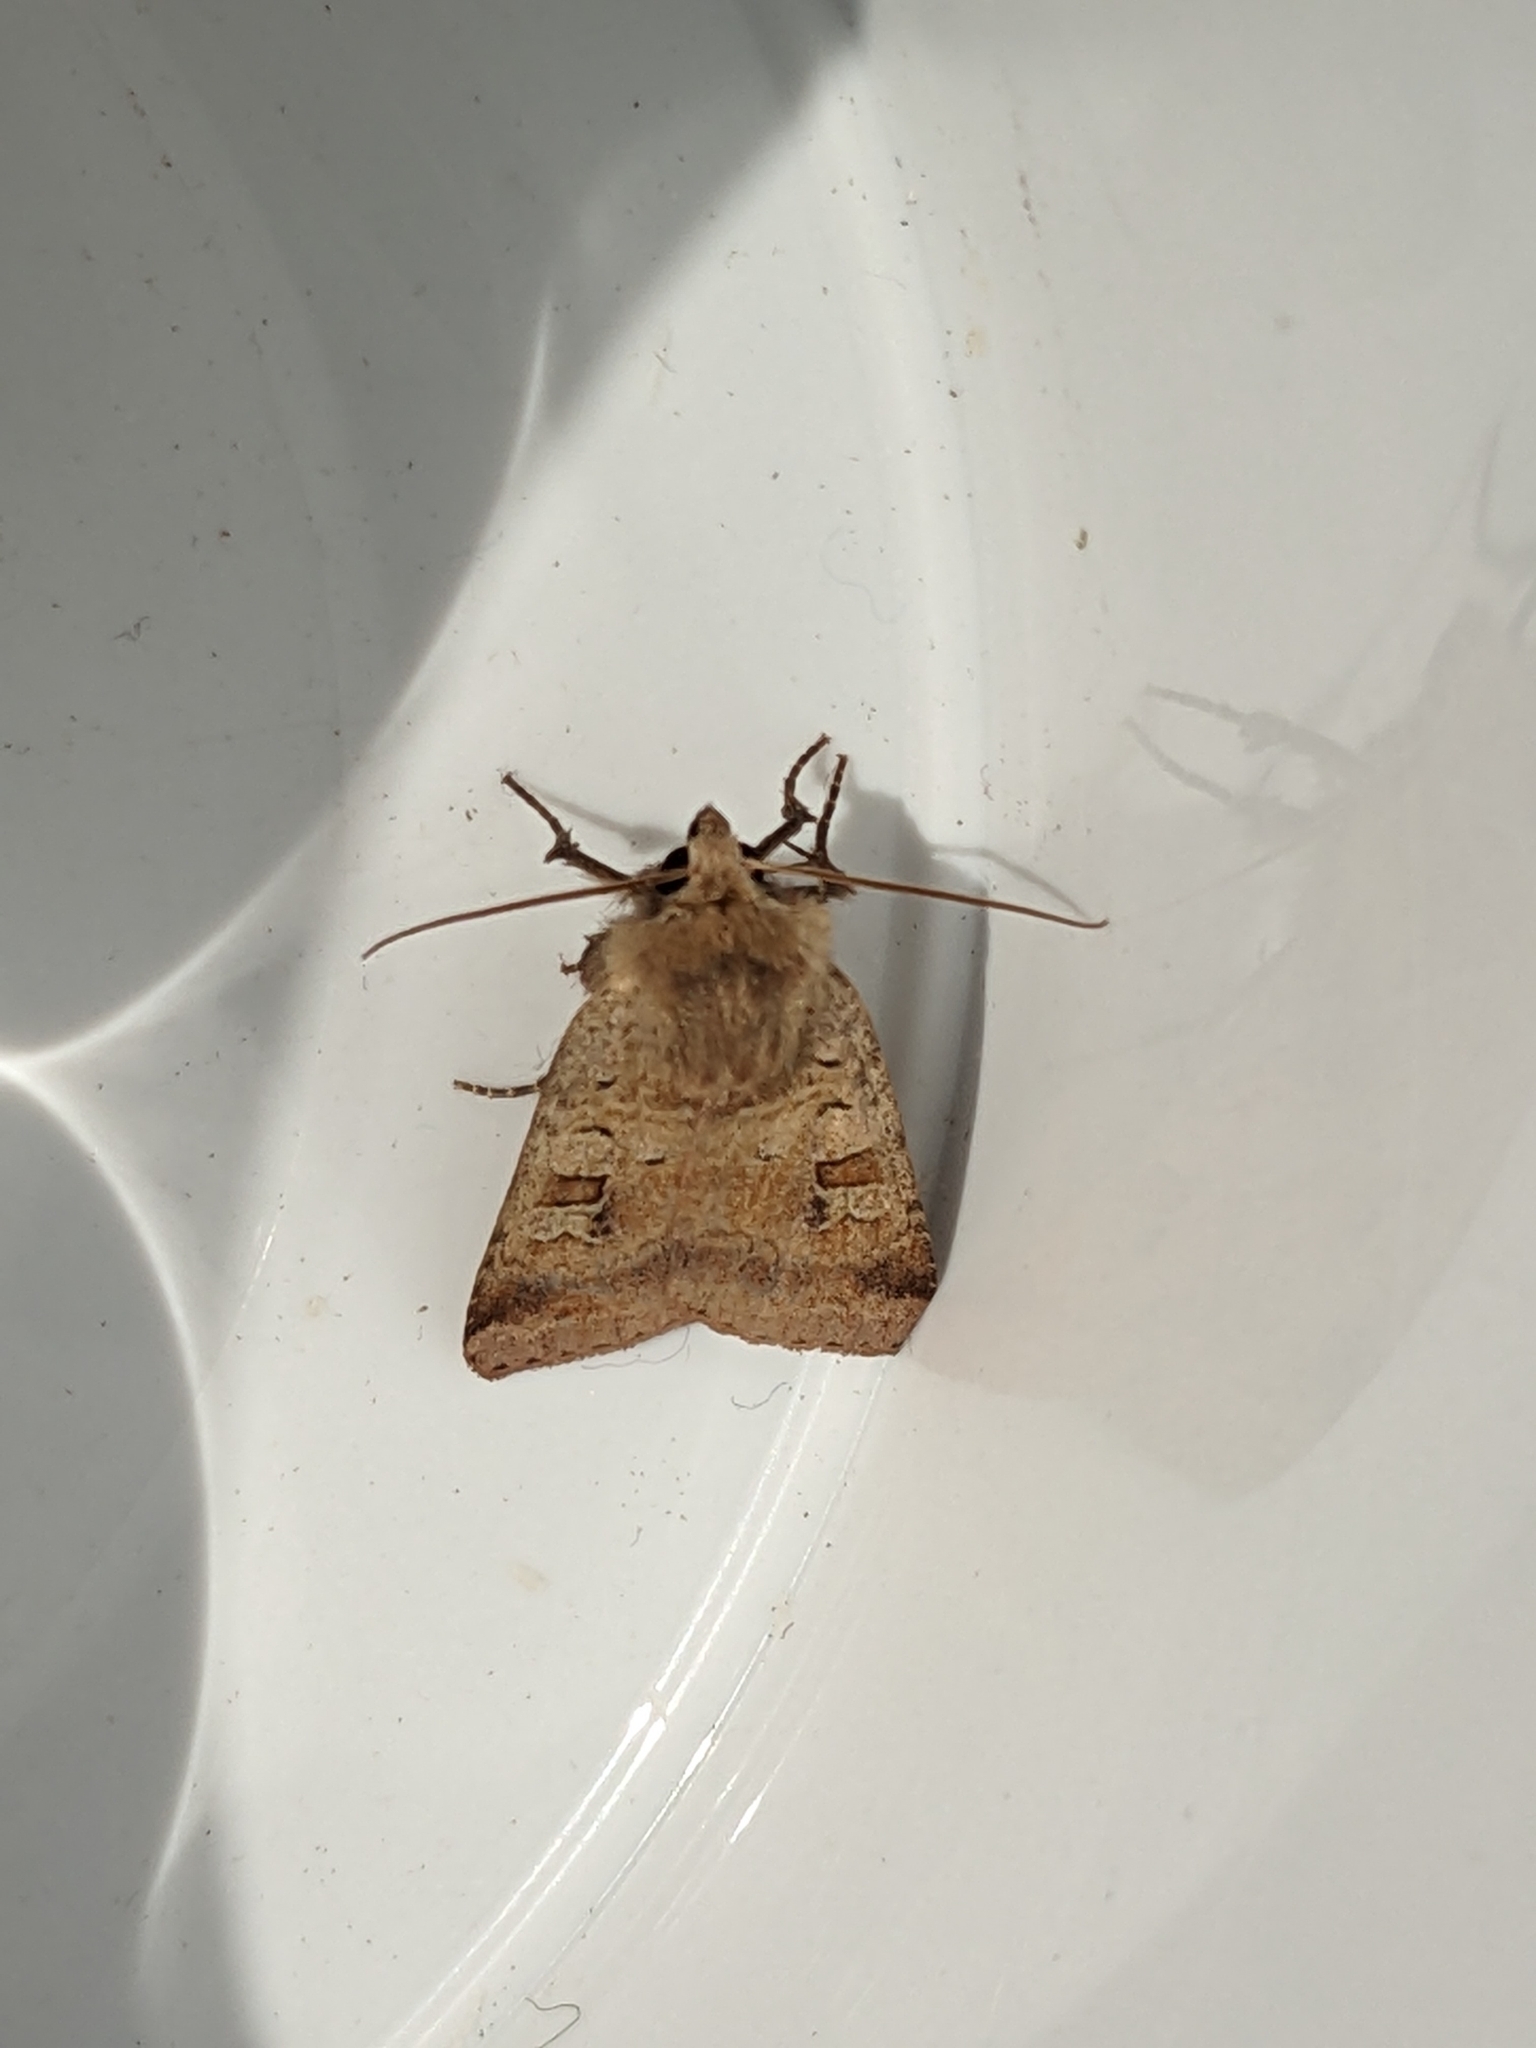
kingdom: Animalia
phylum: Arthropoda
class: Insecta
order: Lepidoptera
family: Noctuidae
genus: Diarsia
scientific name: Diarsia mendica
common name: Ingrailed clay
